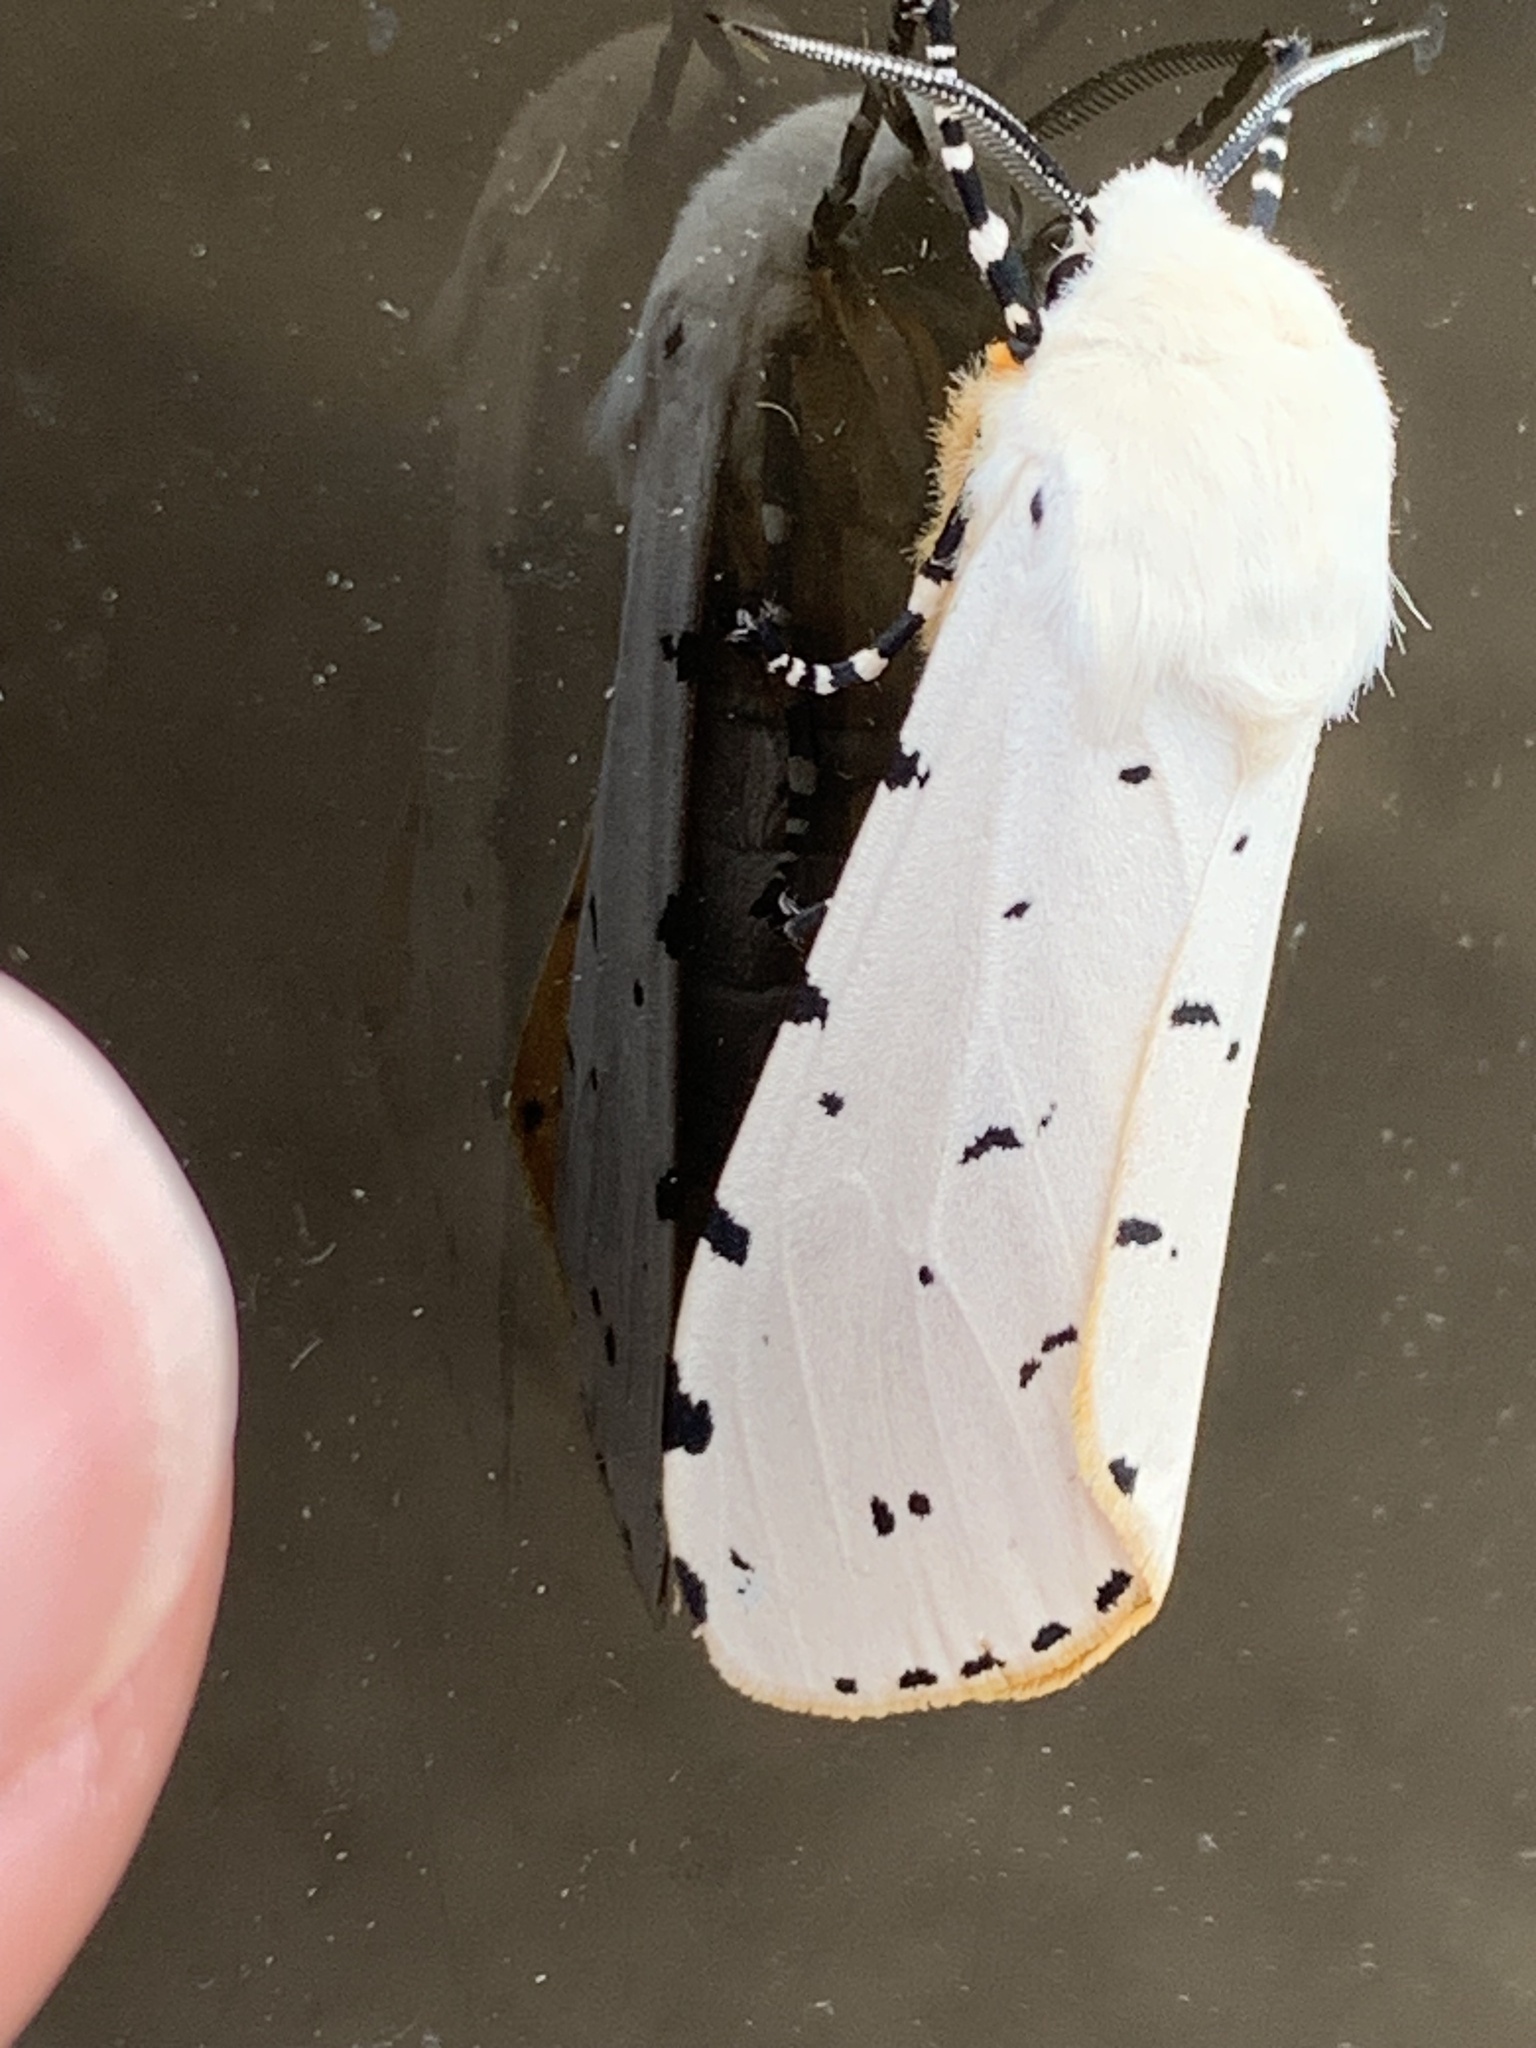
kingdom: Animalia
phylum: Arthropoda
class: Insecta
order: Lepidoptera
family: Erebidae
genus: Estigmene
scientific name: Estigmene acrea
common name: Salt marsh moth
